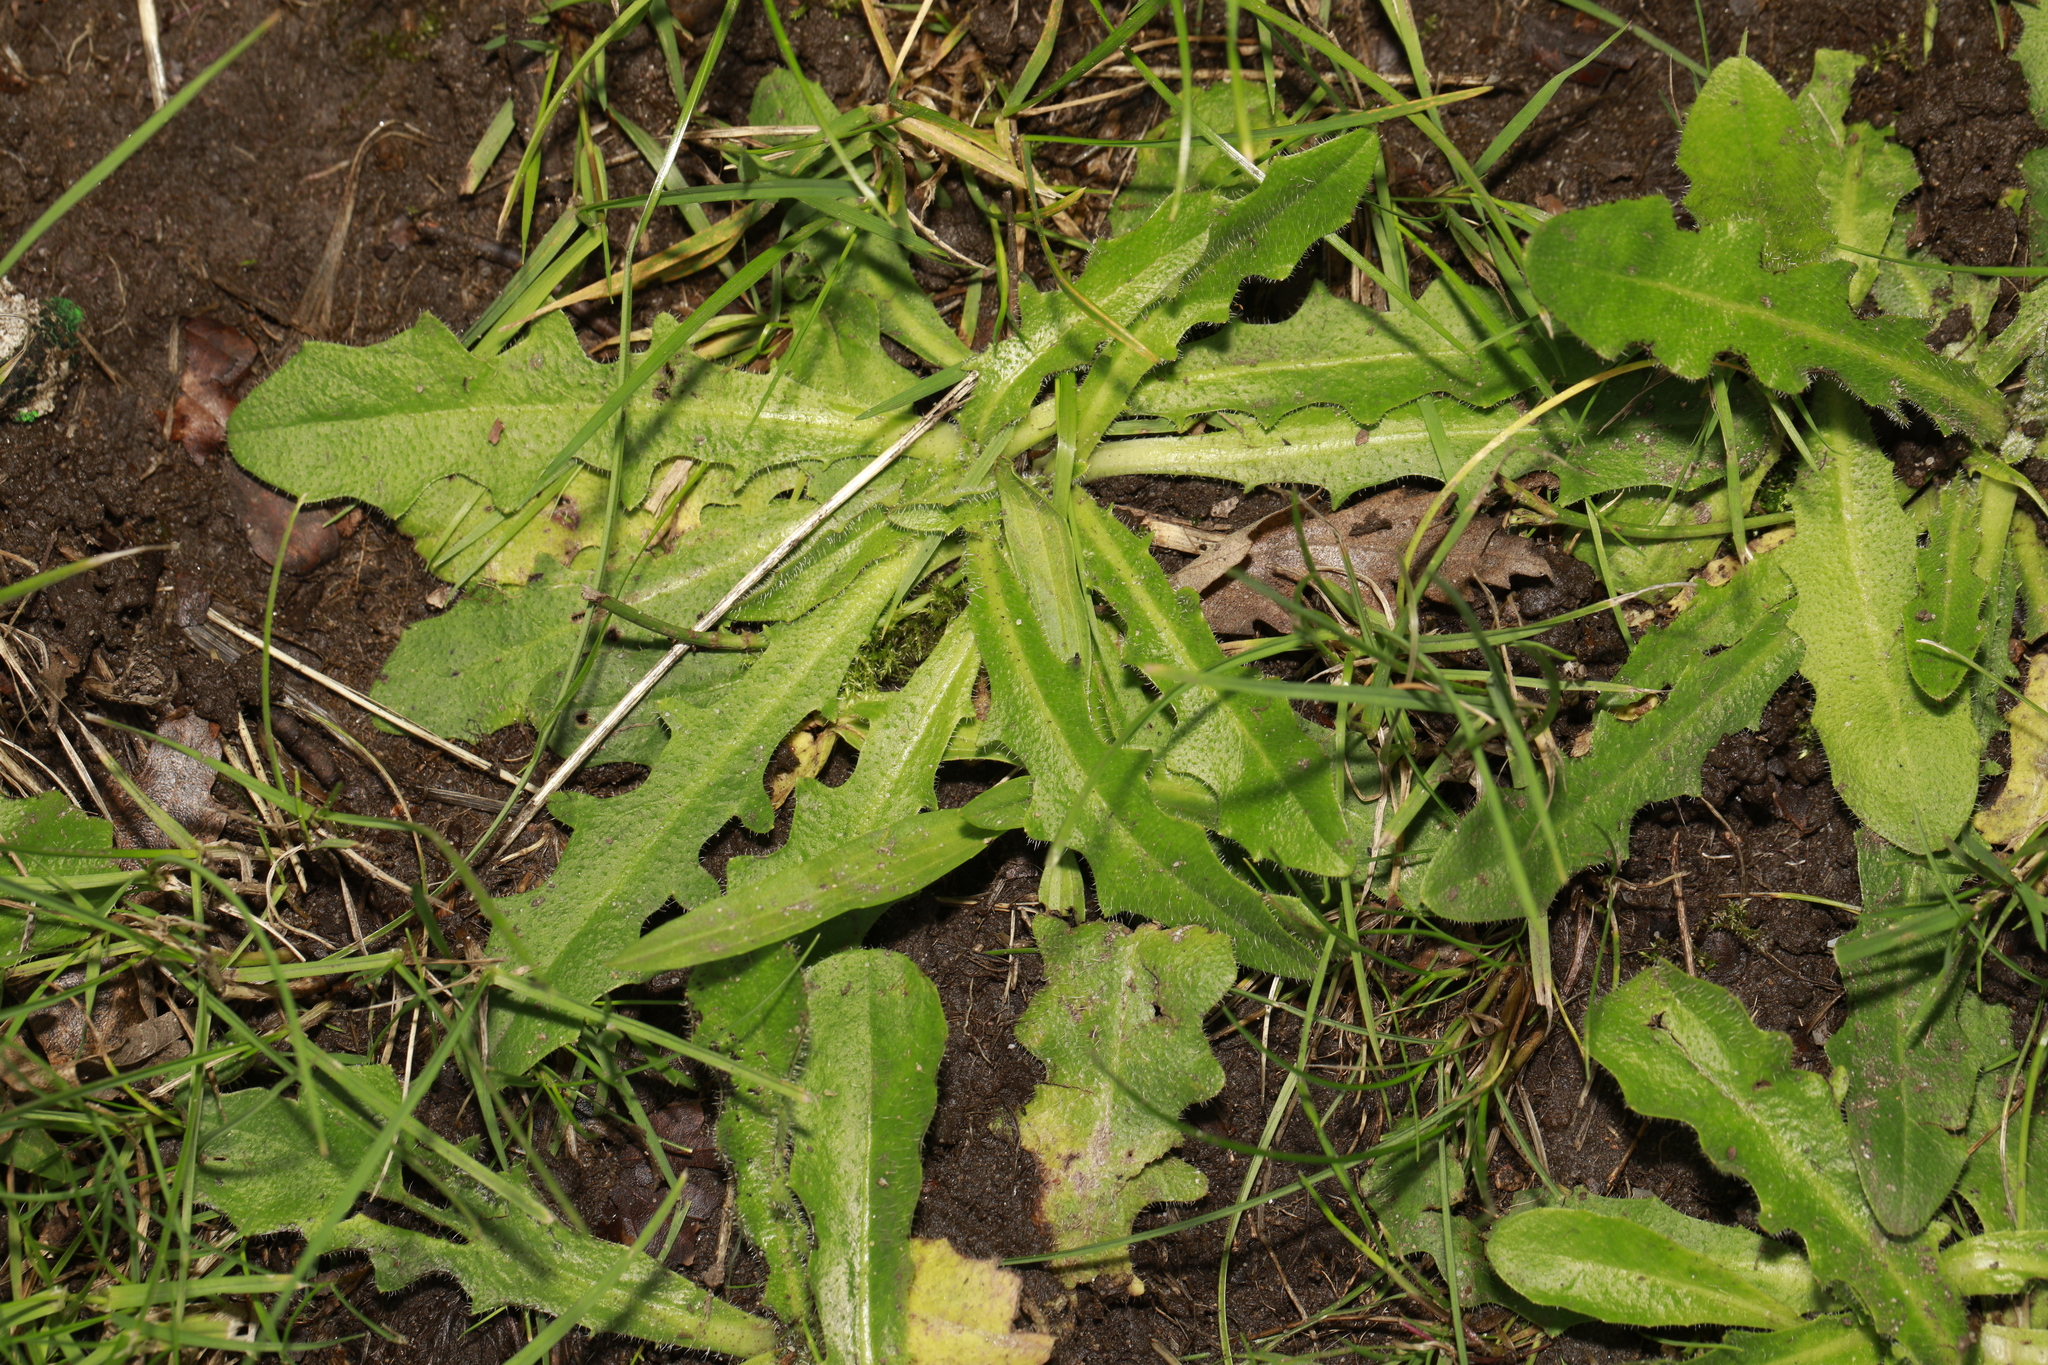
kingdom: Plantae
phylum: Tracheophyta
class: Magnoliopsida
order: Asterales
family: Asteraceae
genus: Hypochaeris
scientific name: Hypochaeris radicata
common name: Flatweed
